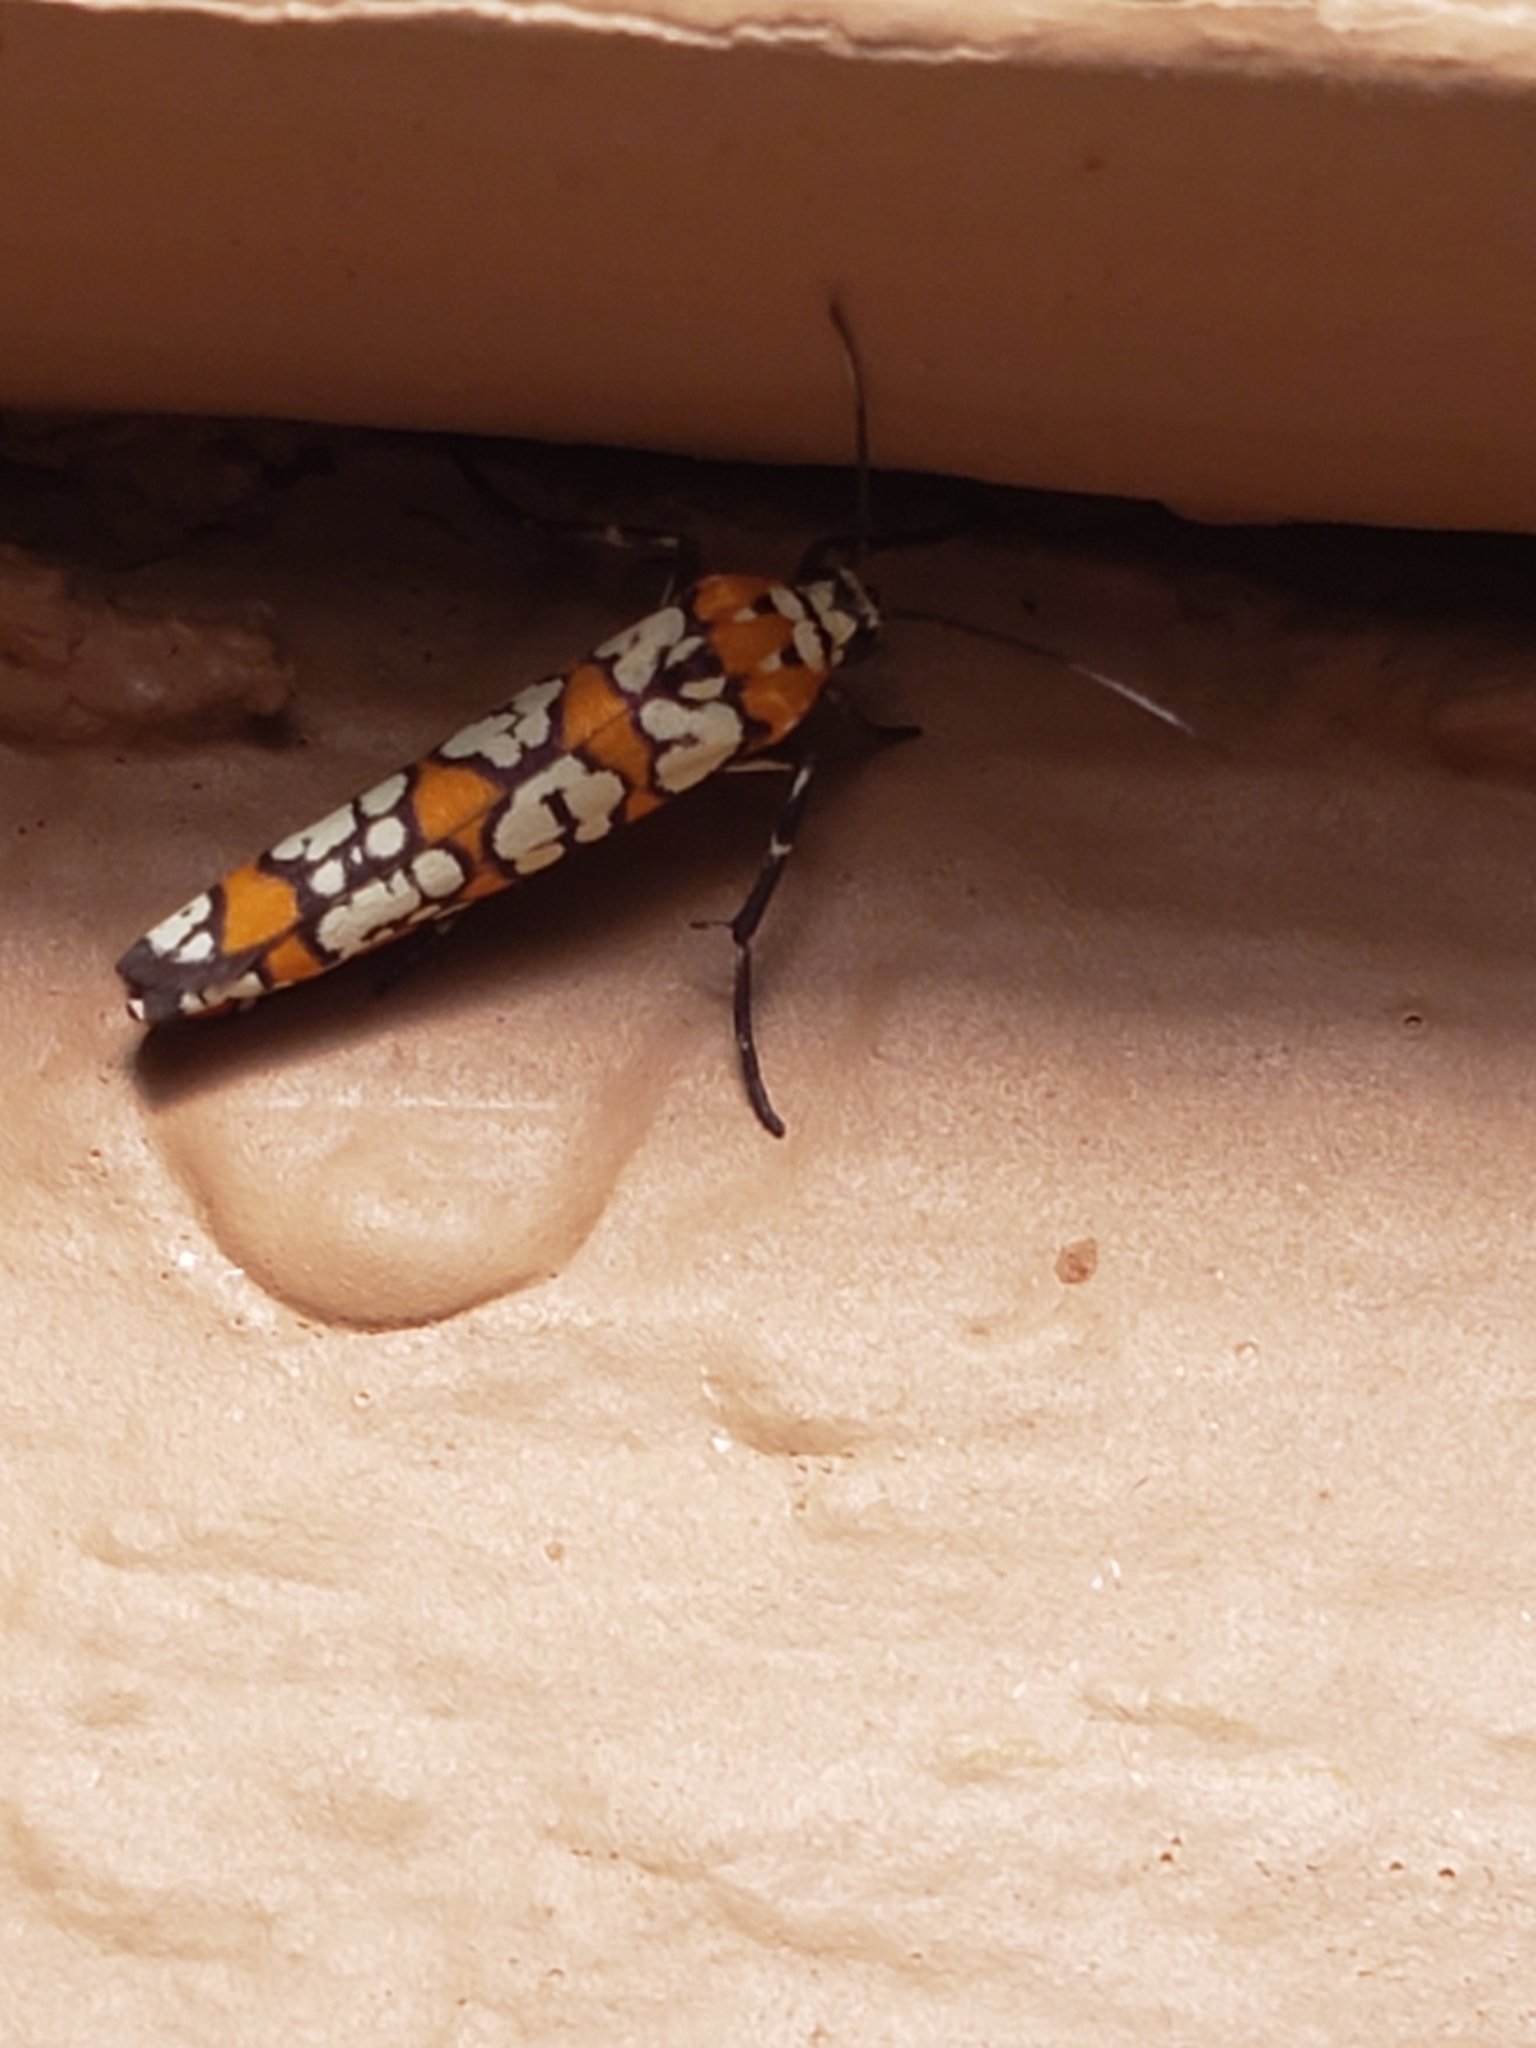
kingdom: Animalia
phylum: Arthropoda
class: Insecta
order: Lepidoptera
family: Attevidae
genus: Atteva
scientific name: Atteva punctella
